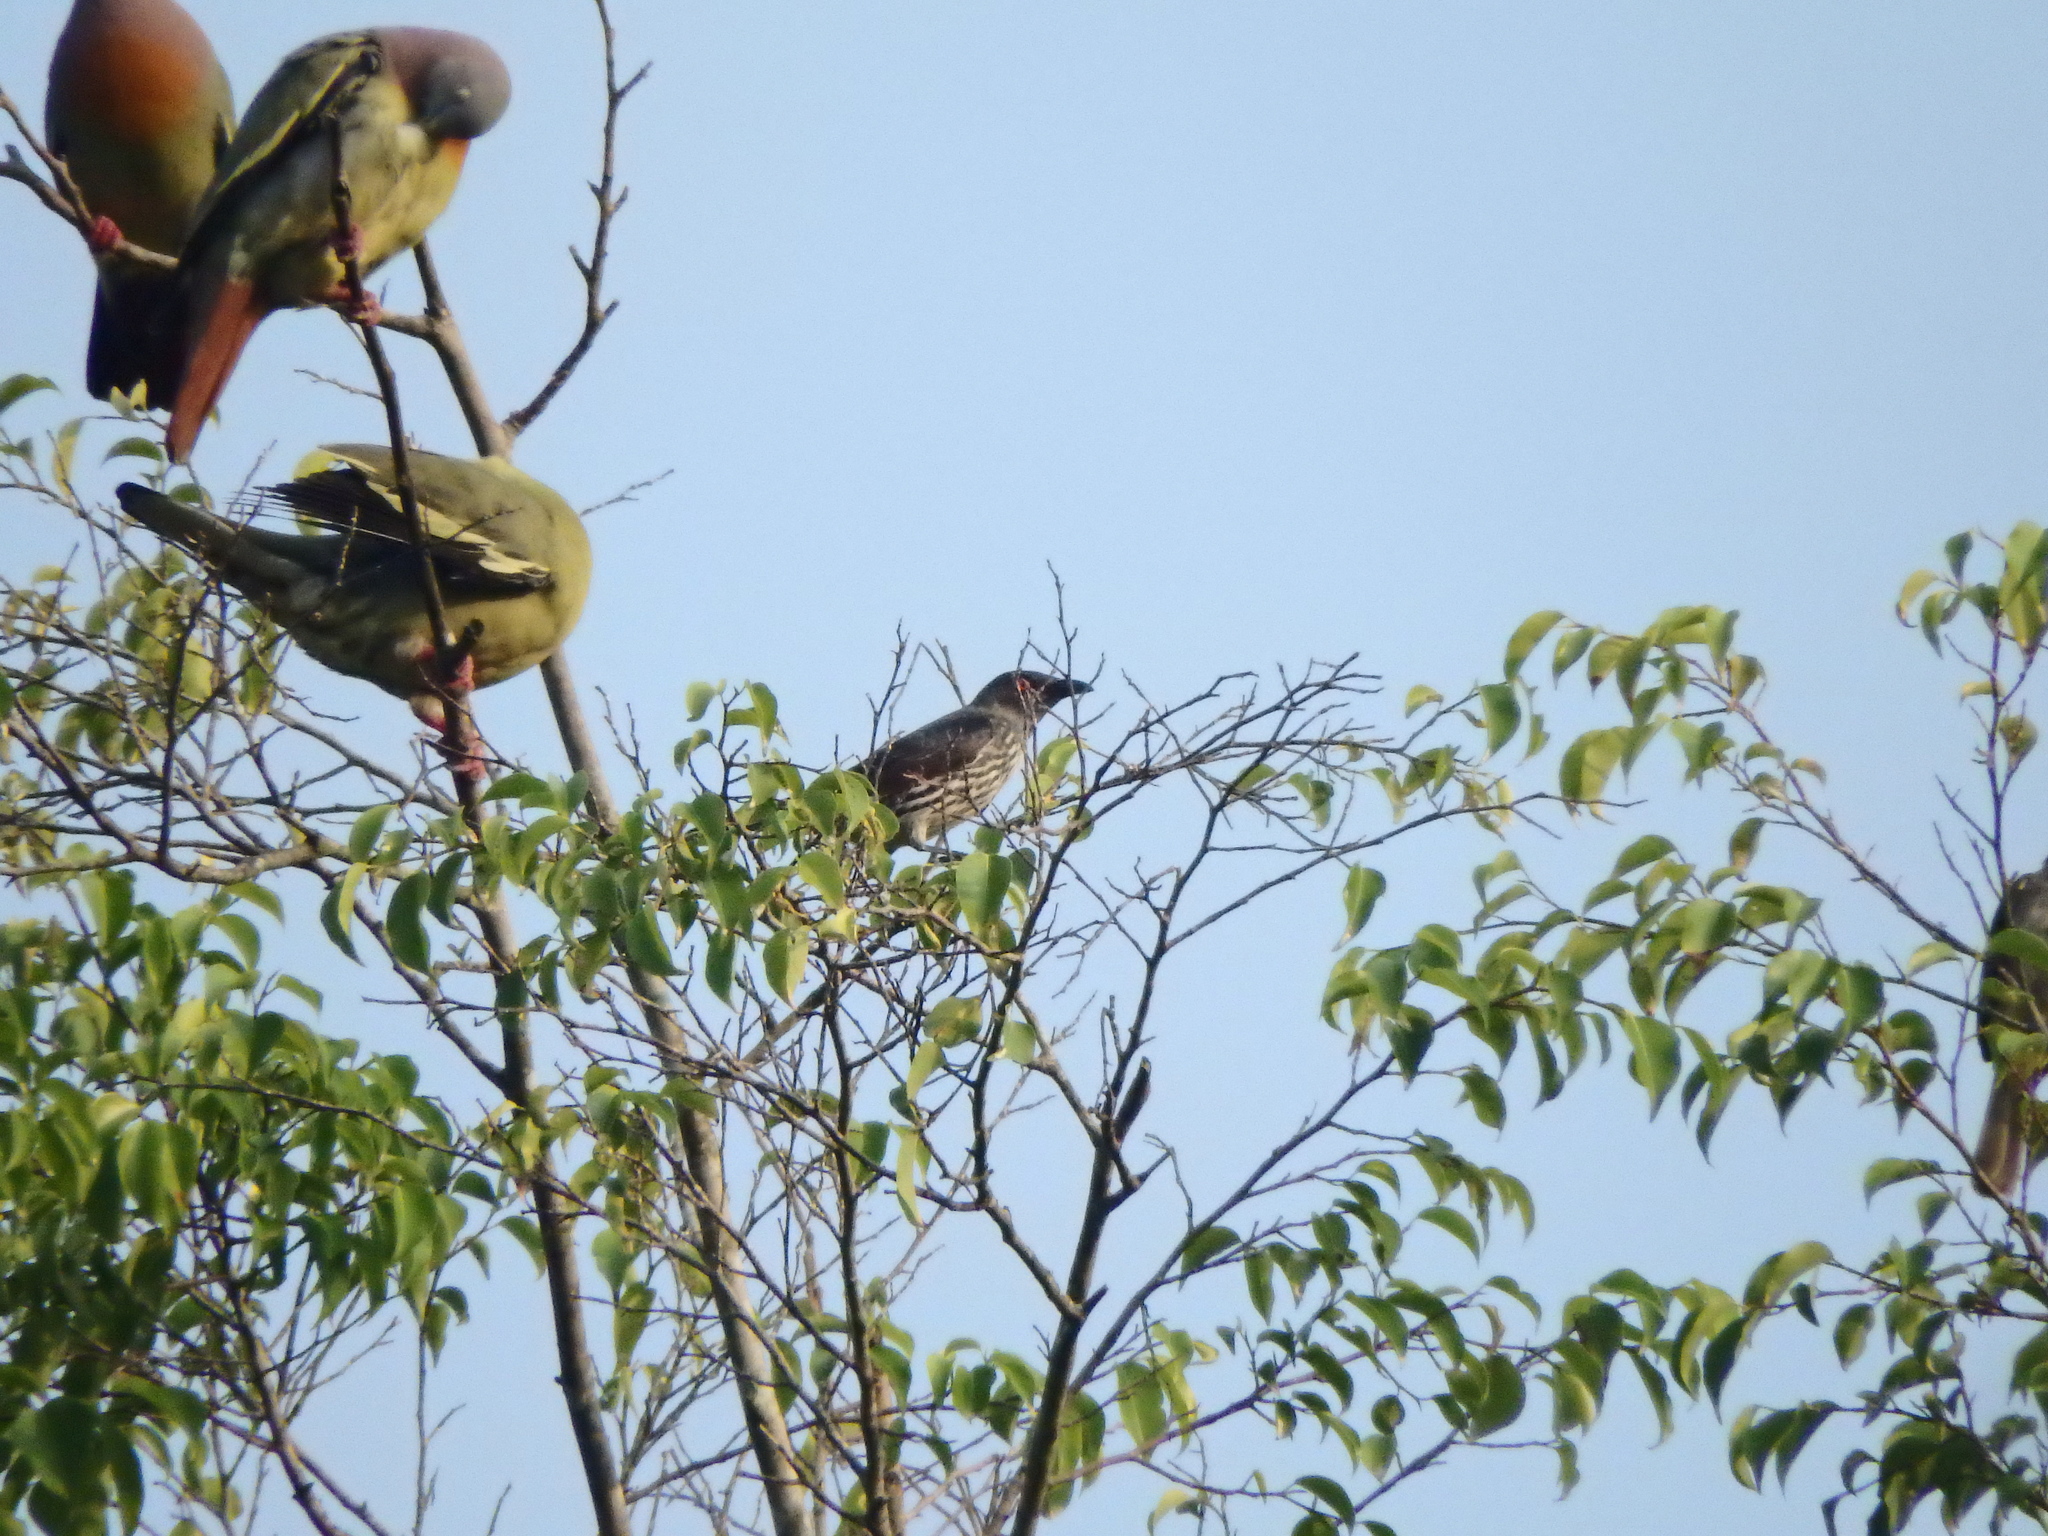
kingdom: Animalia
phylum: Chordata
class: Aves
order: Passeriformes
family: Sturnidae
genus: Aplonis
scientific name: Aplonis panayensis
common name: Asian glossy starling
